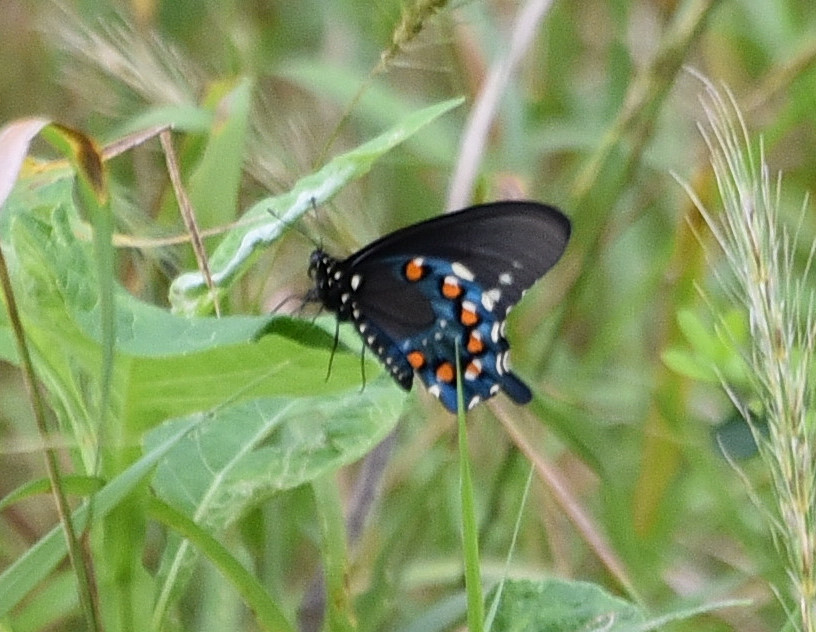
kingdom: Animalia
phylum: Arthropoda
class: Insecta
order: Lepidoptera
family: Papilionidae
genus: Battus
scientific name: Battus philenor
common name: Pipevine swallowtail
